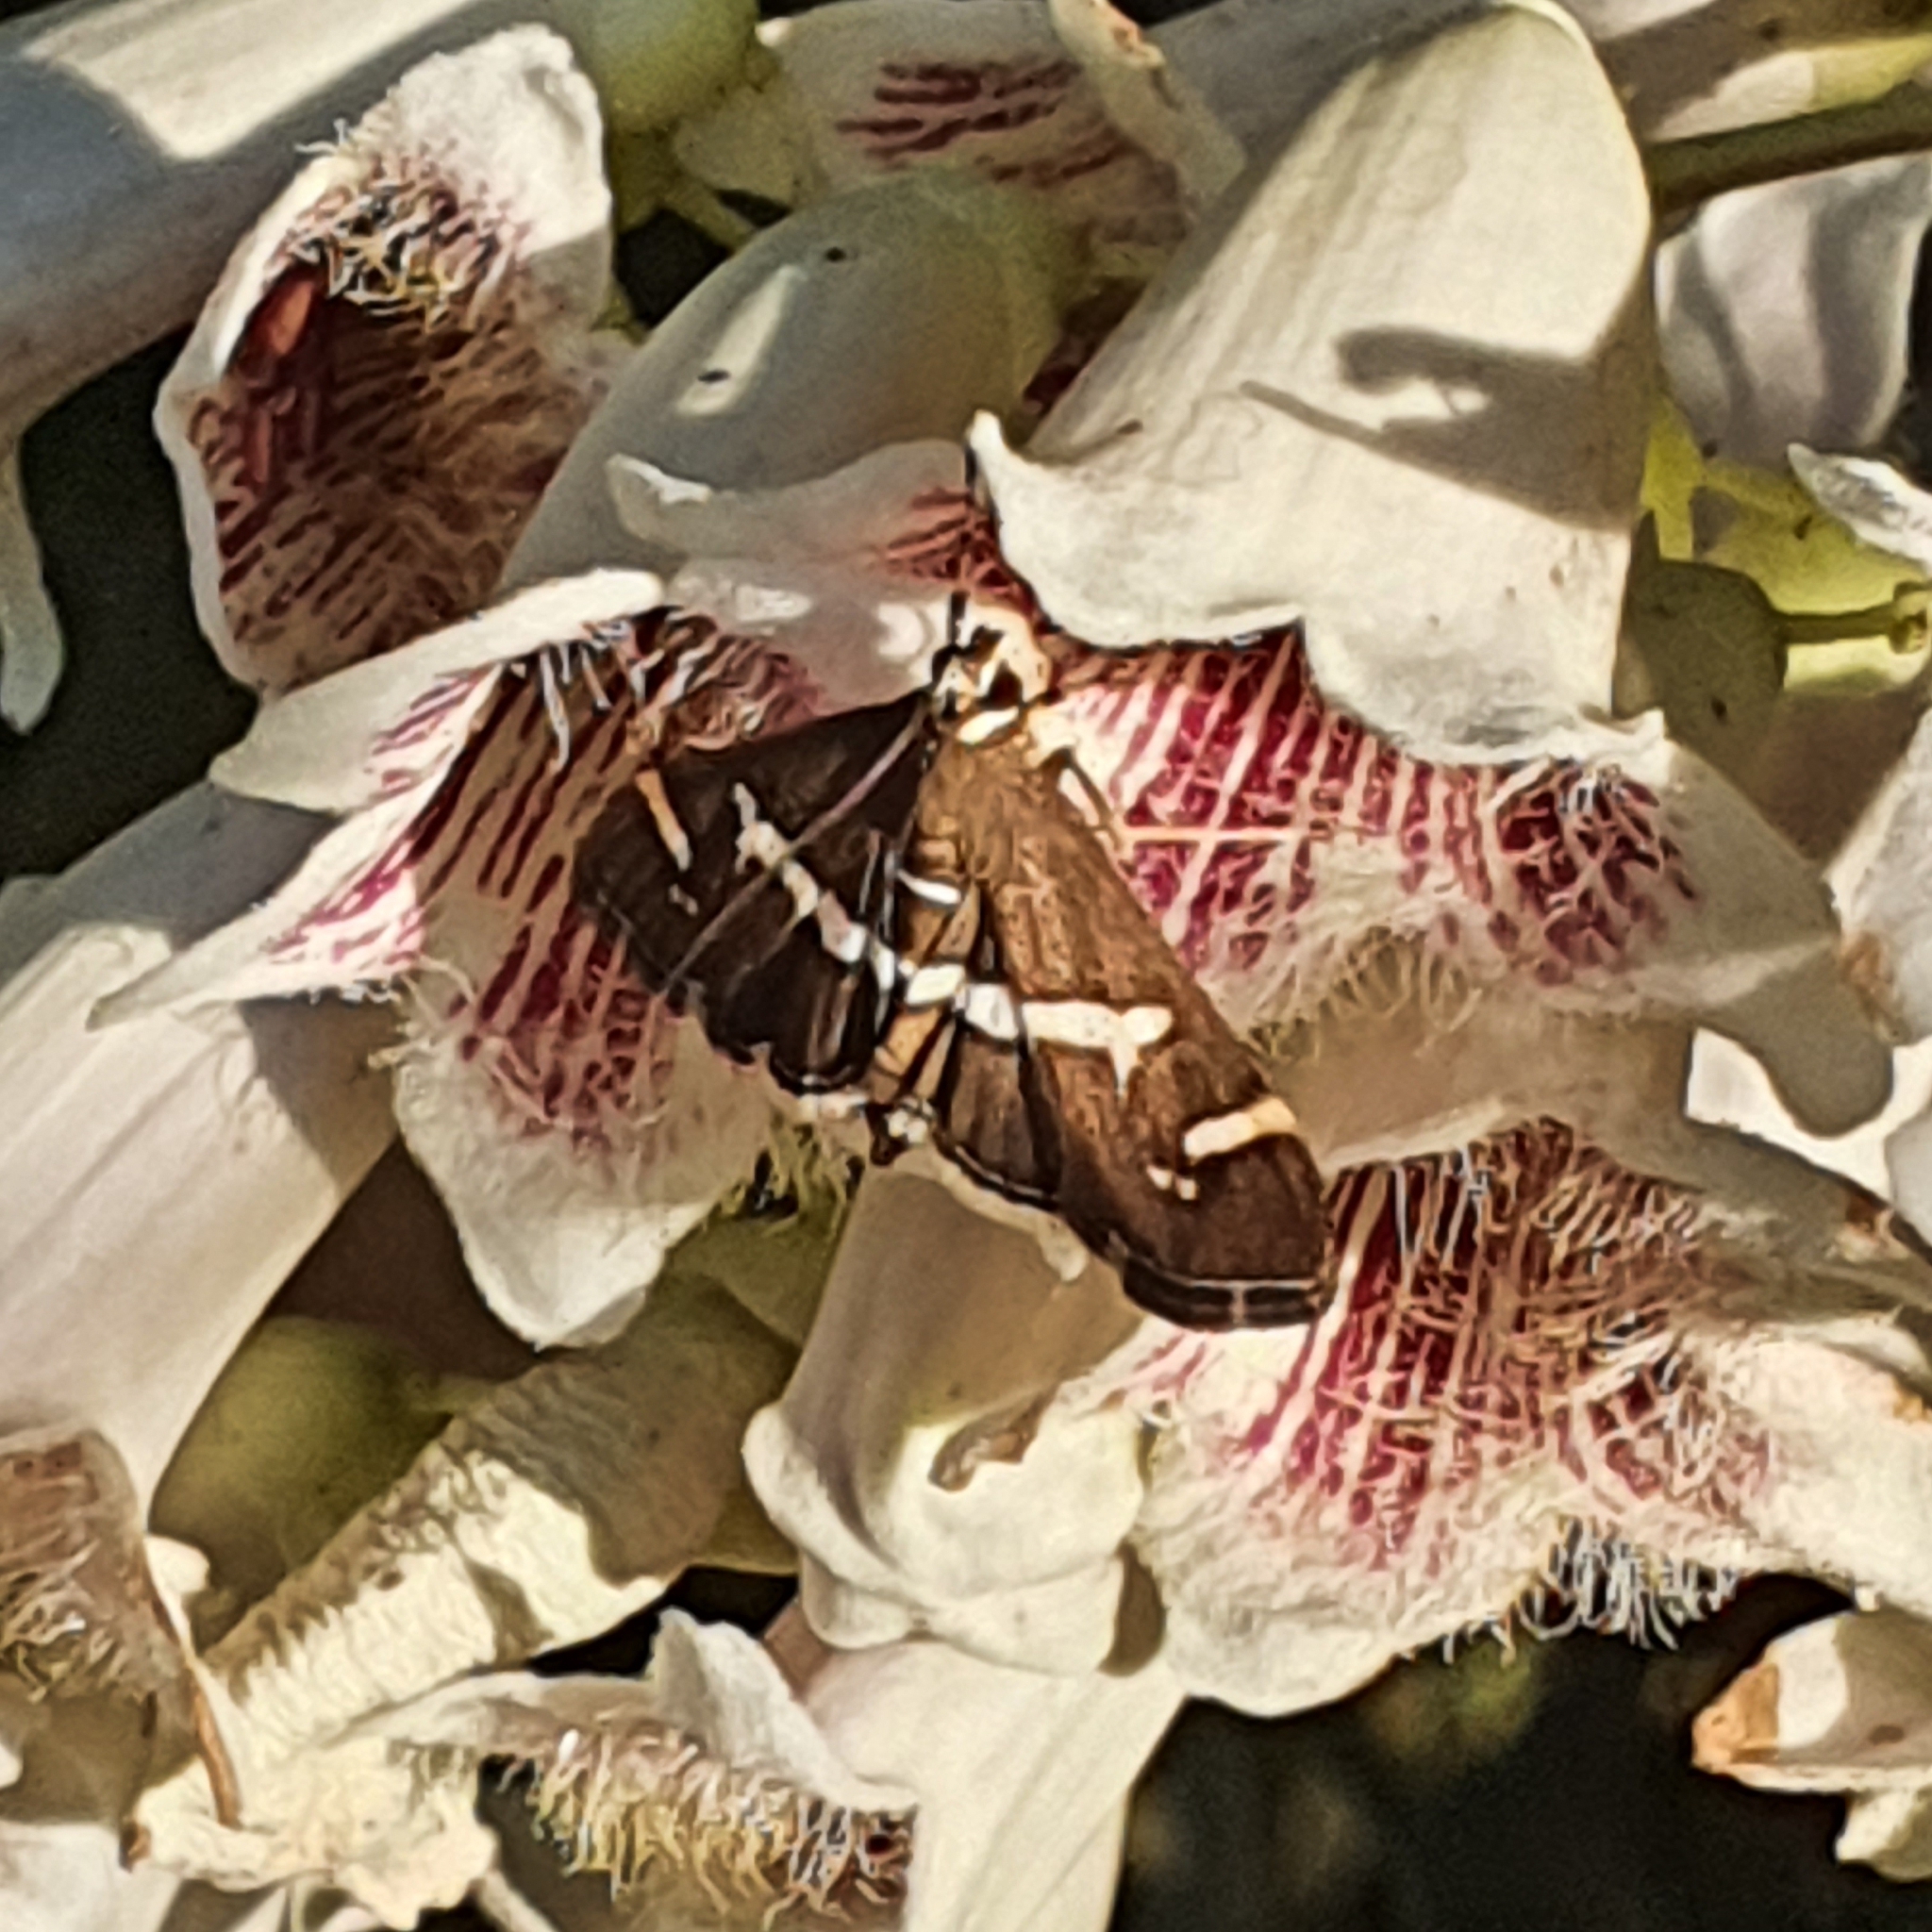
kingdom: Animalia
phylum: Arthropoda
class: Insecta
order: Lepidoptera
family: Crambidae
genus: Spoladea
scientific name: Spoladea recurvalis
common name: Beet webworm moth
